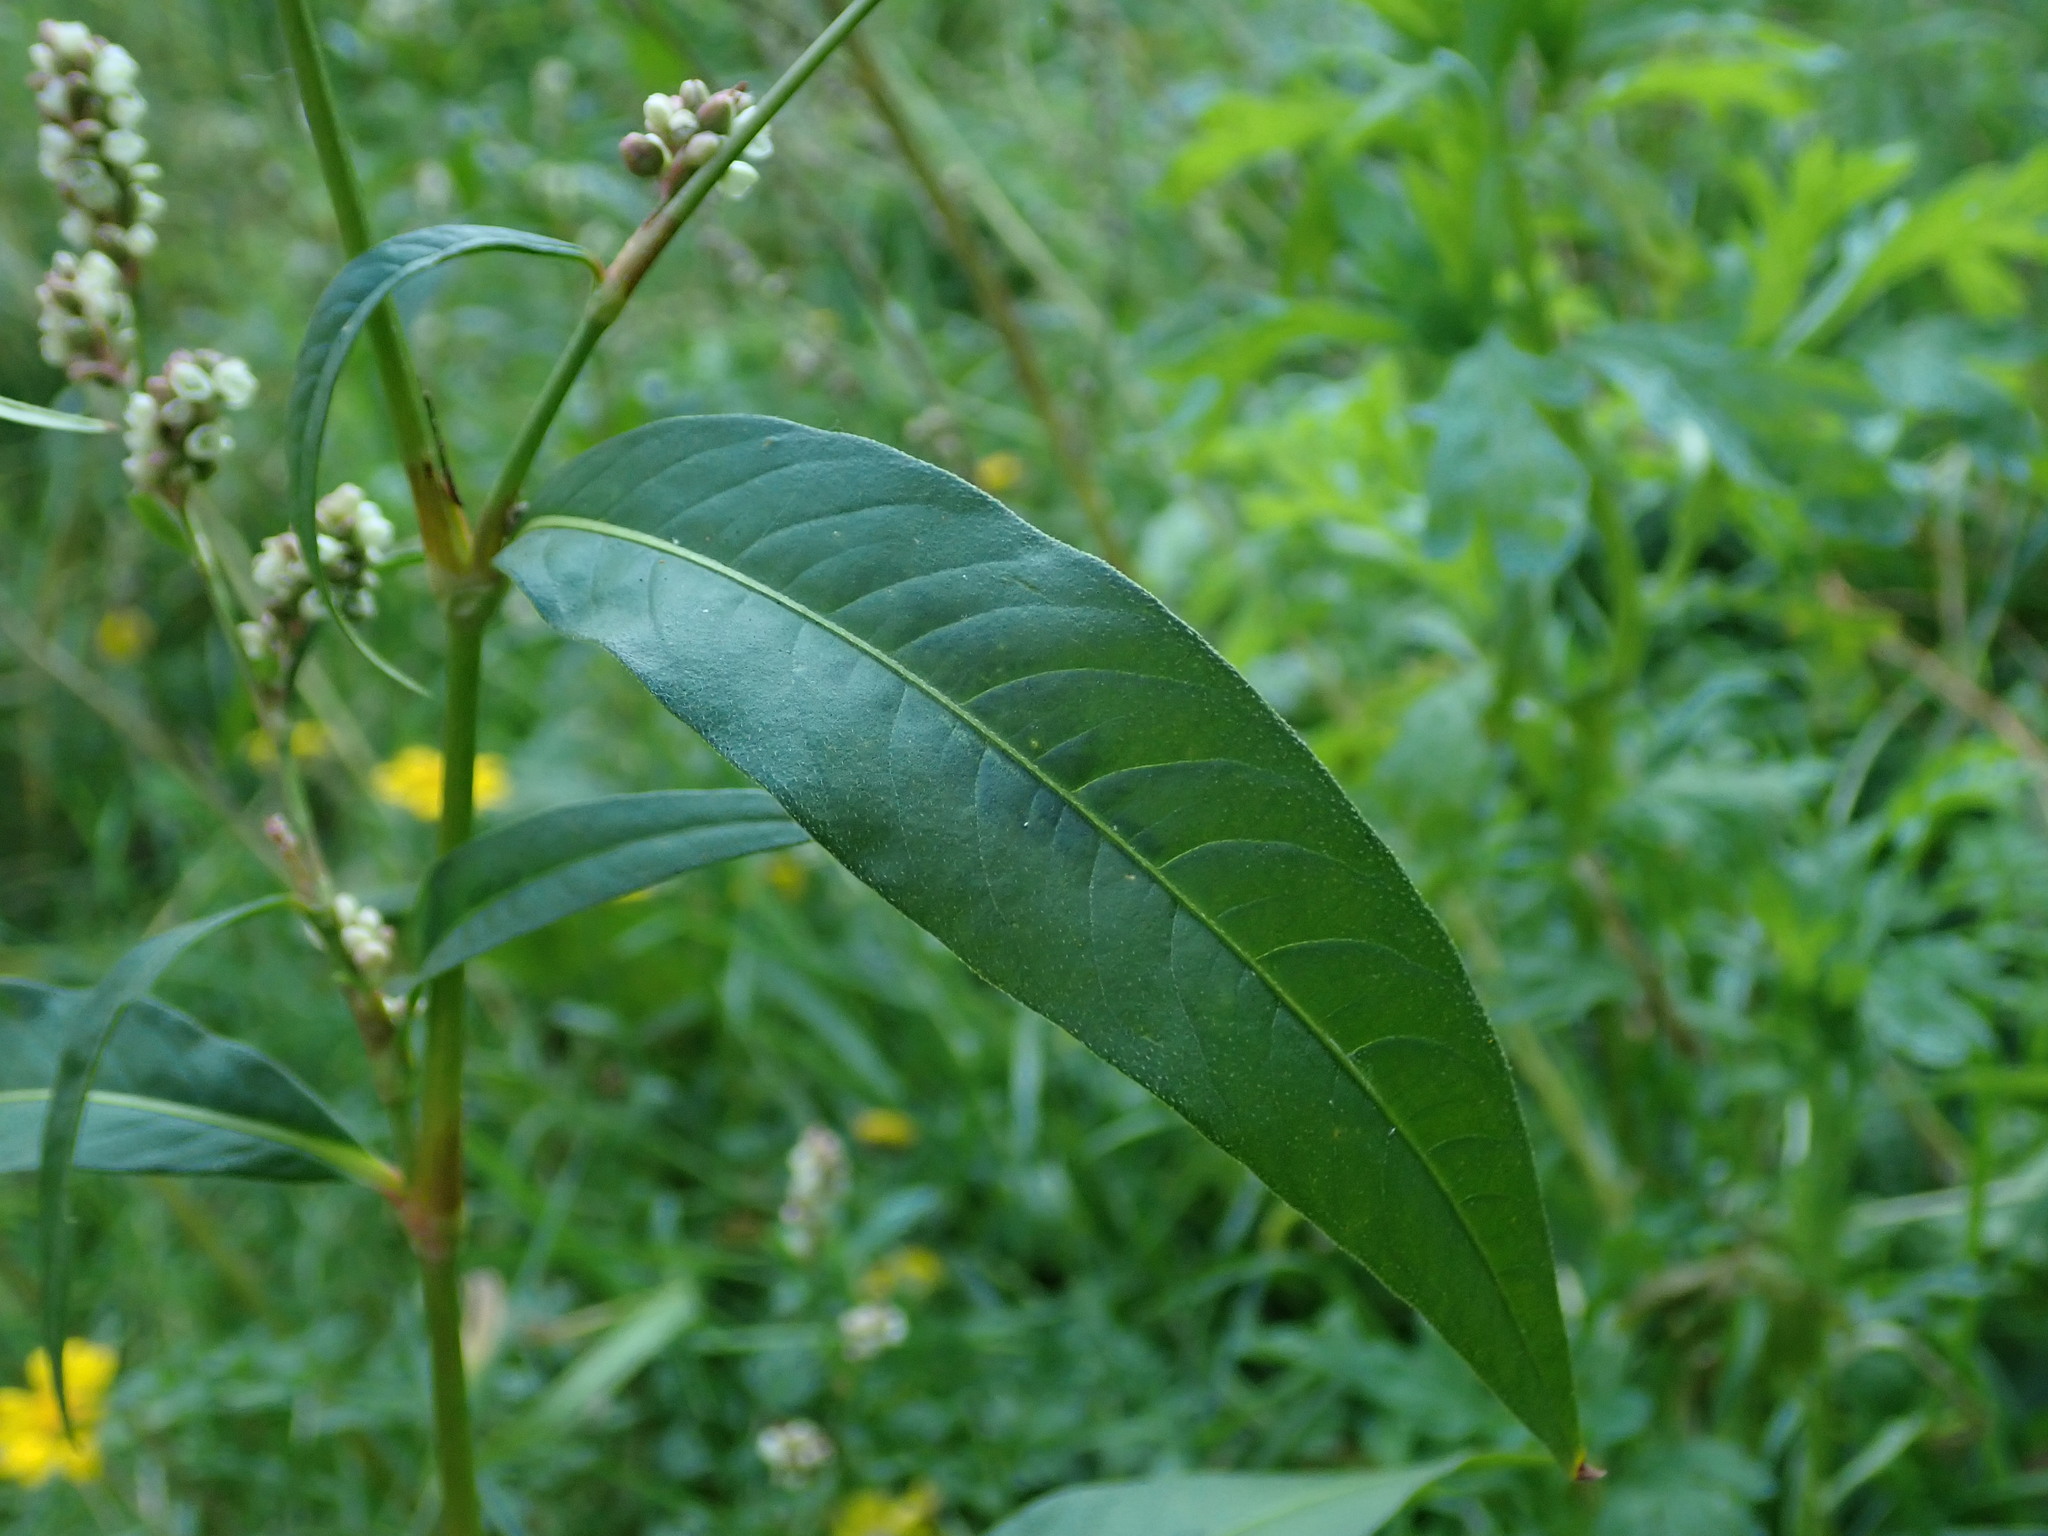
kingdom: Plantae
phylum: Tracheophyta
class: Magnoliopsida
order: Caryophyllales
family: Polygonaceae
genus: Persicaria
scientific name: Persicaria maculosa
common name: Redshank
